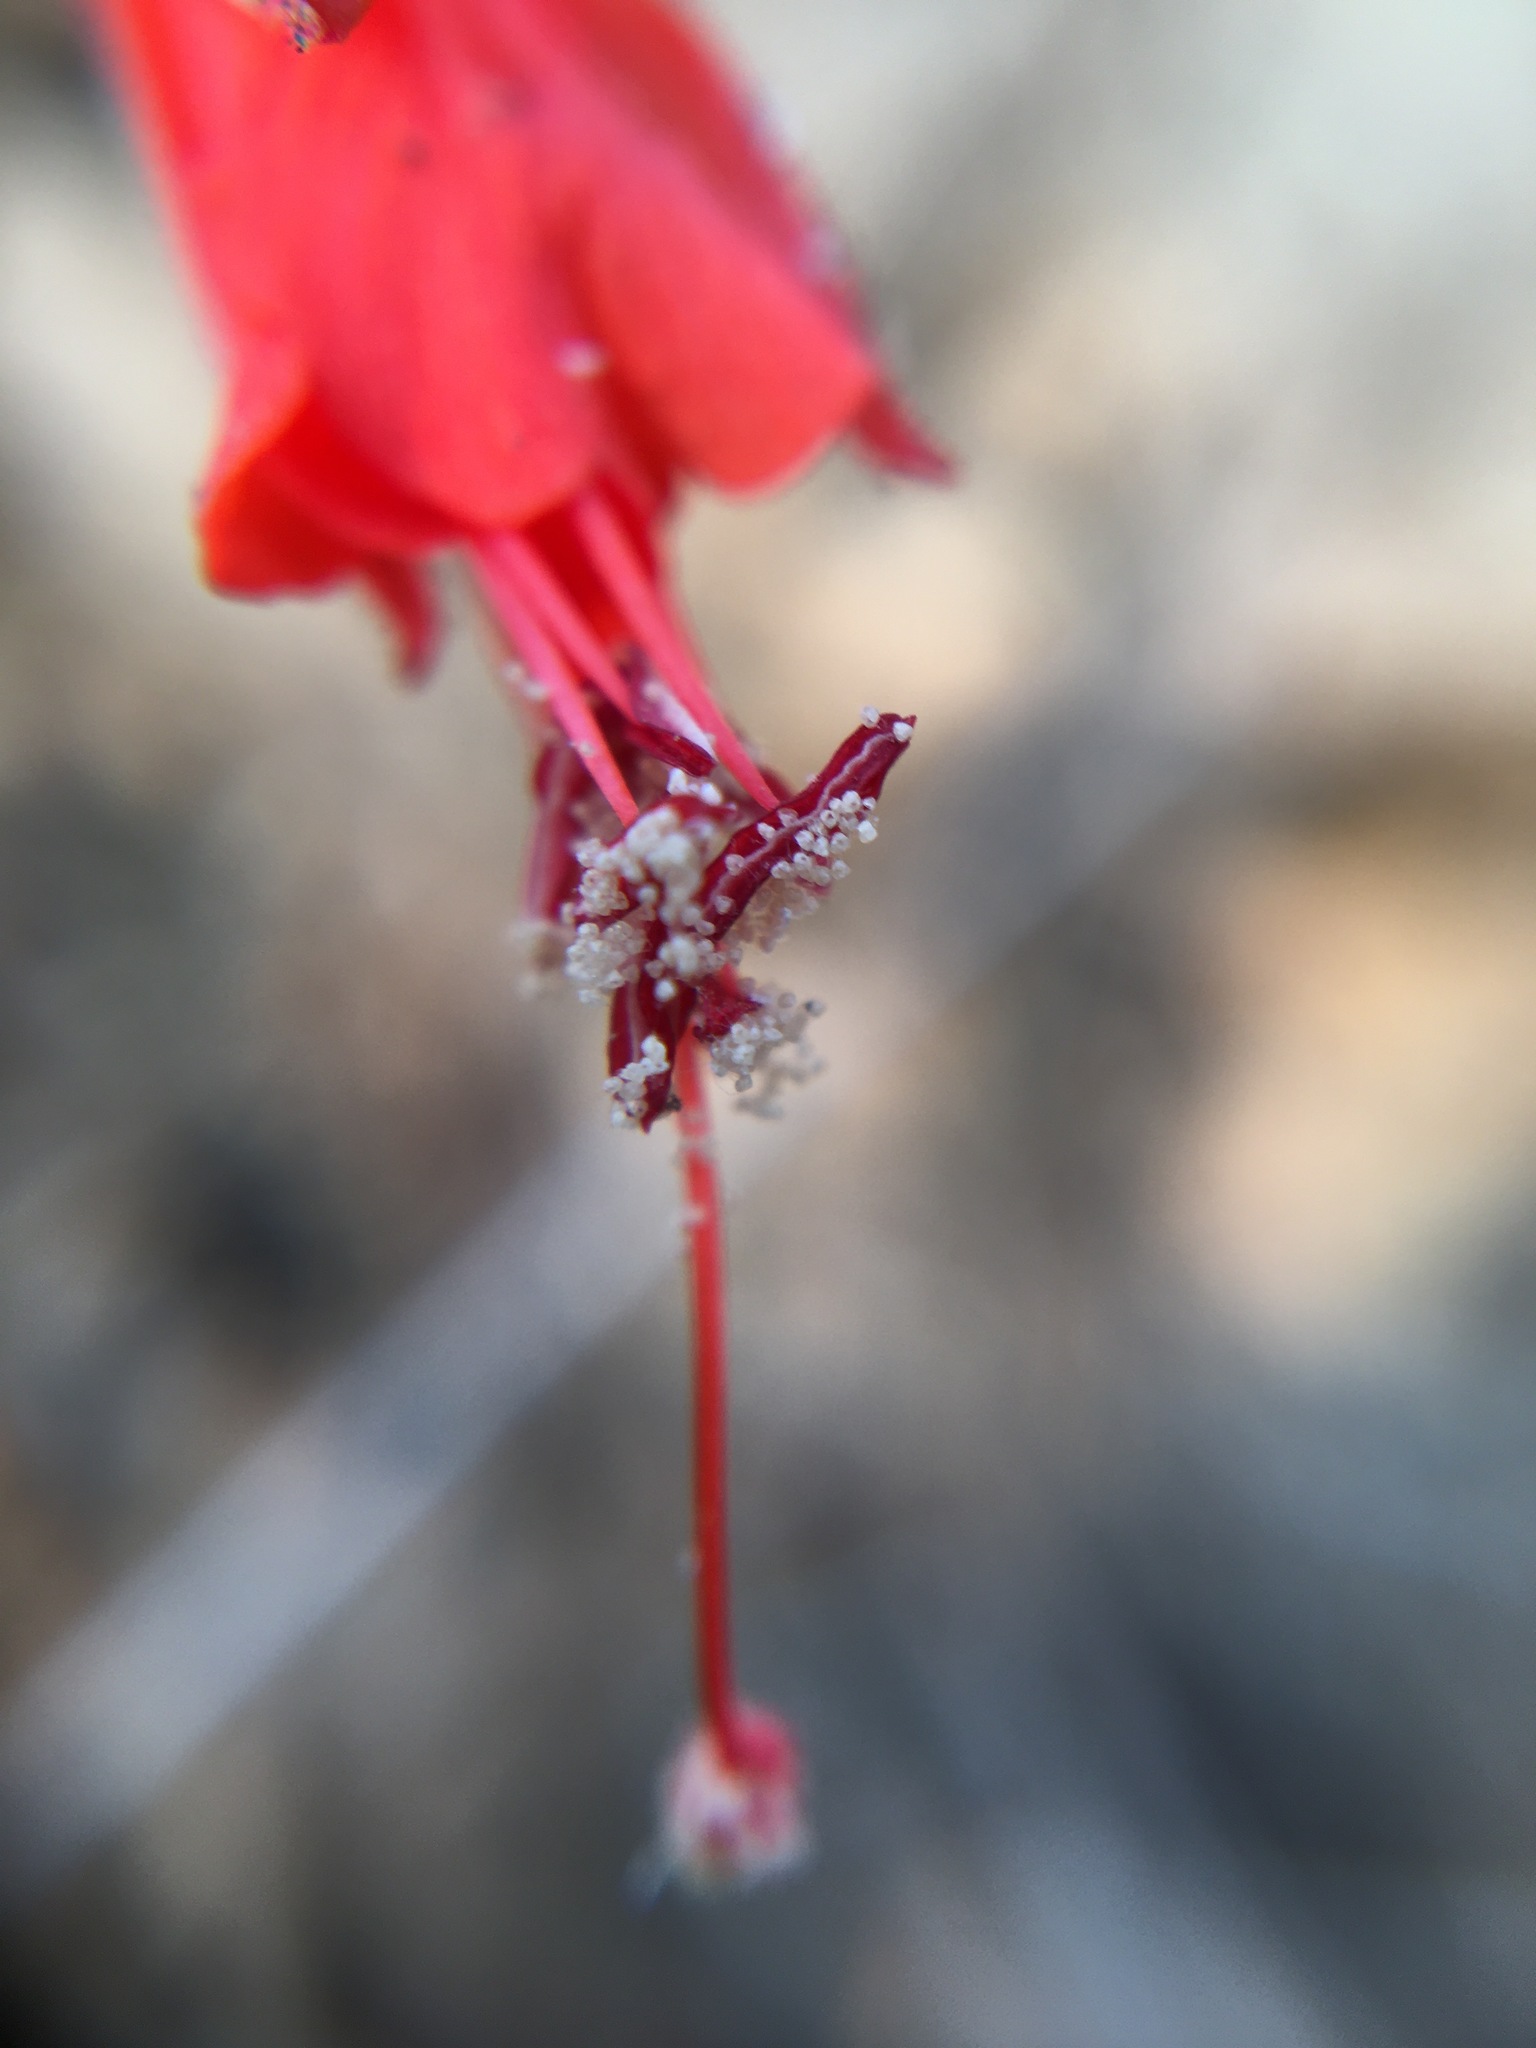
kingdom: Plantae
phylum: Tracheophyta
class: Magnoliopsida
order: Myrtales
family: Onagraceae
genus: Epilobium
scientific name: Epilobium canum
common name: California-fuchsia
